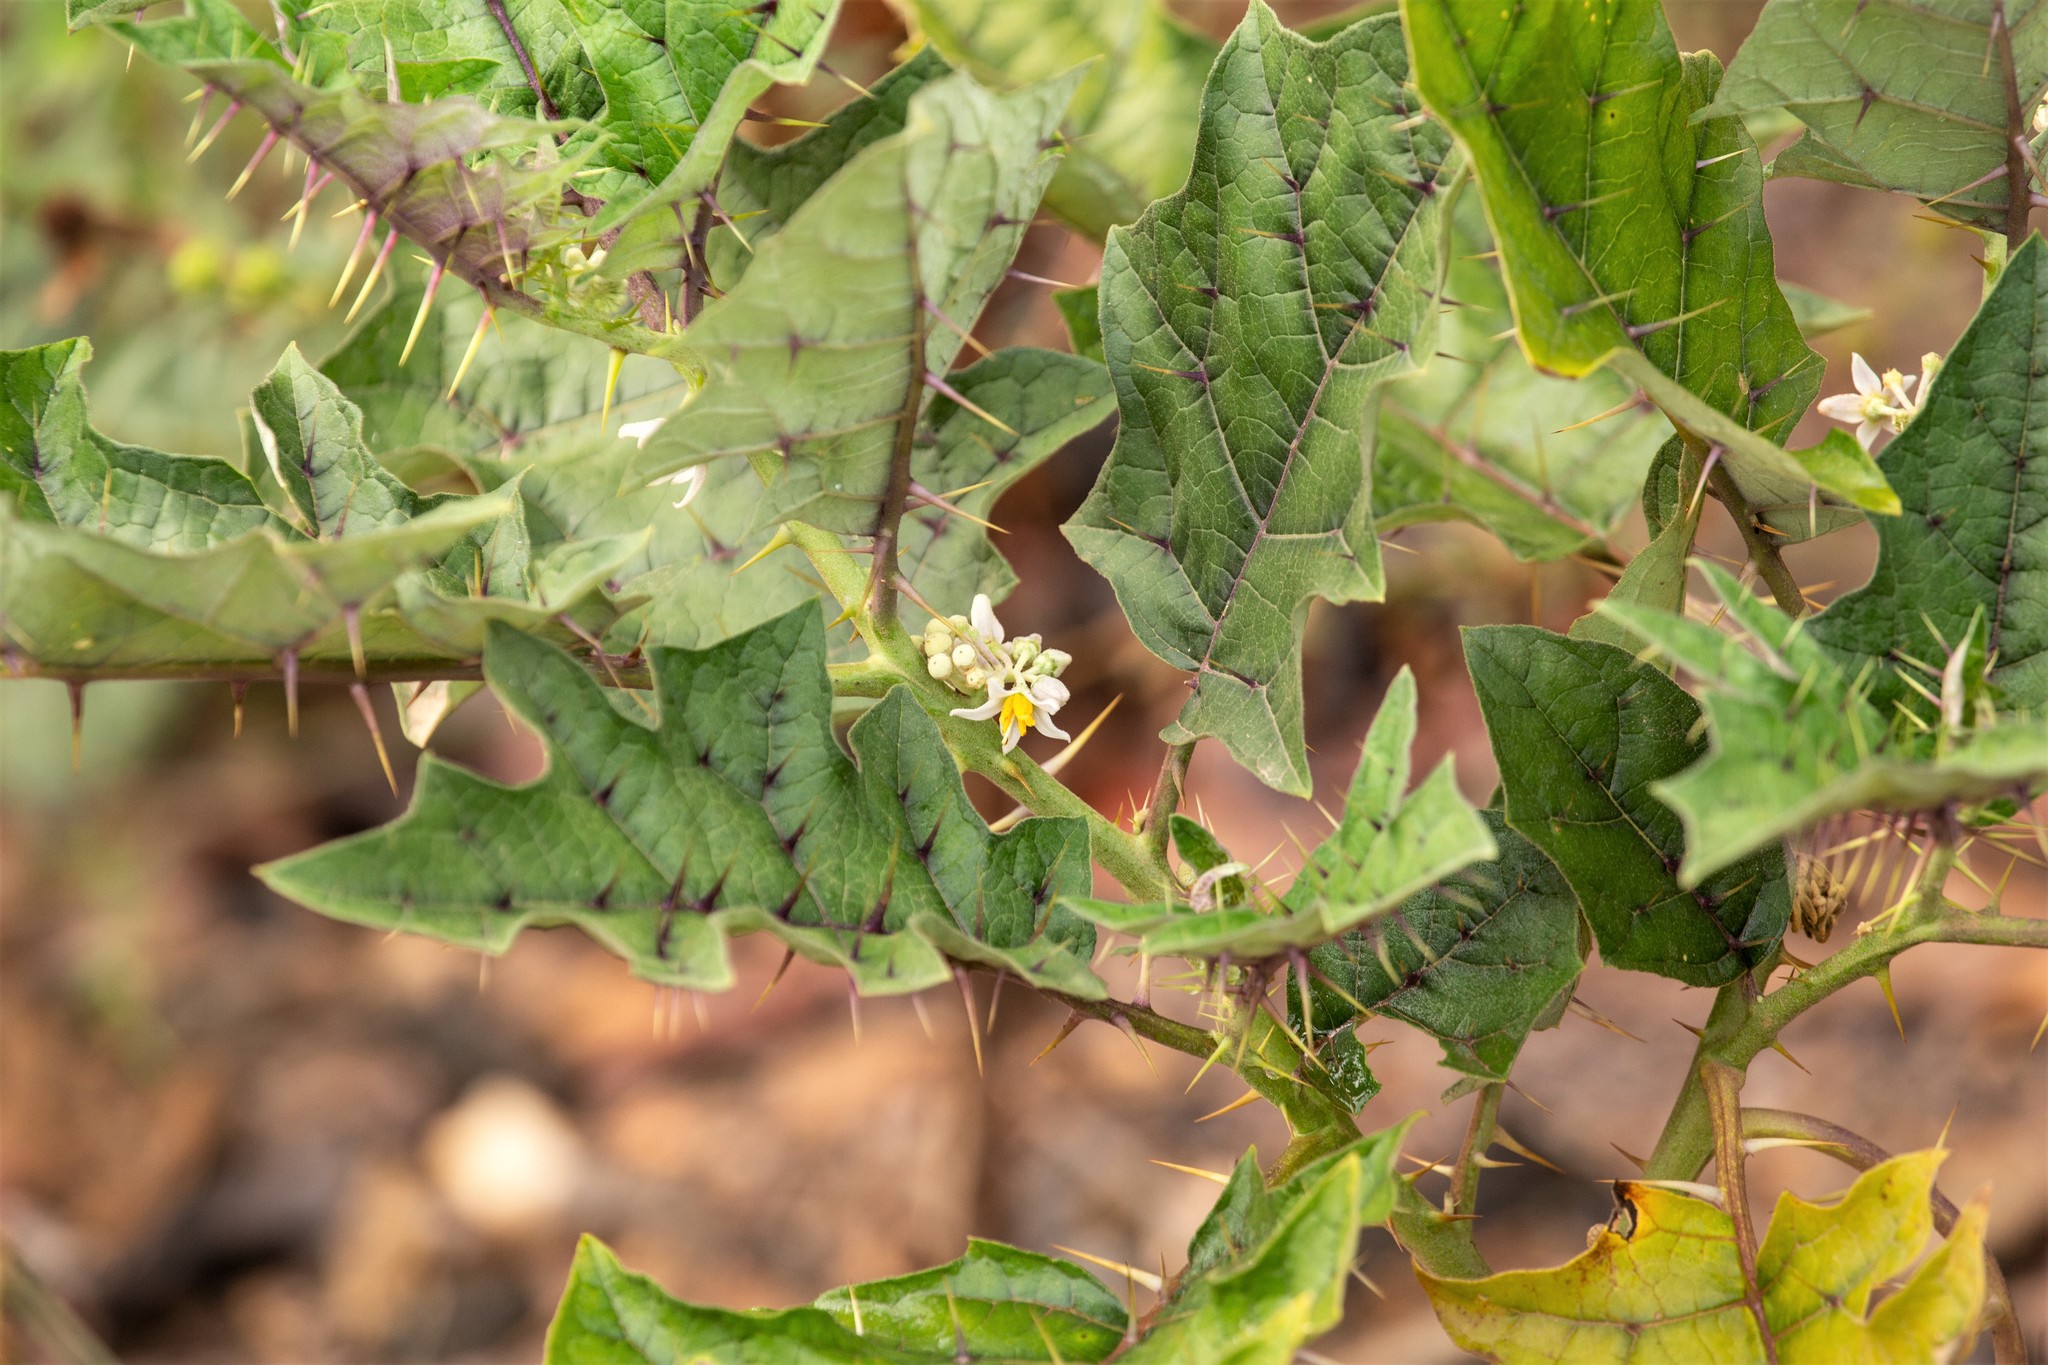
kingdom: Plantae
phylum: Tracheophyta
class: Magnoliopsida
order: Solanales
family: Solanaceae
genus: Solanum
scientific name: Solanum
